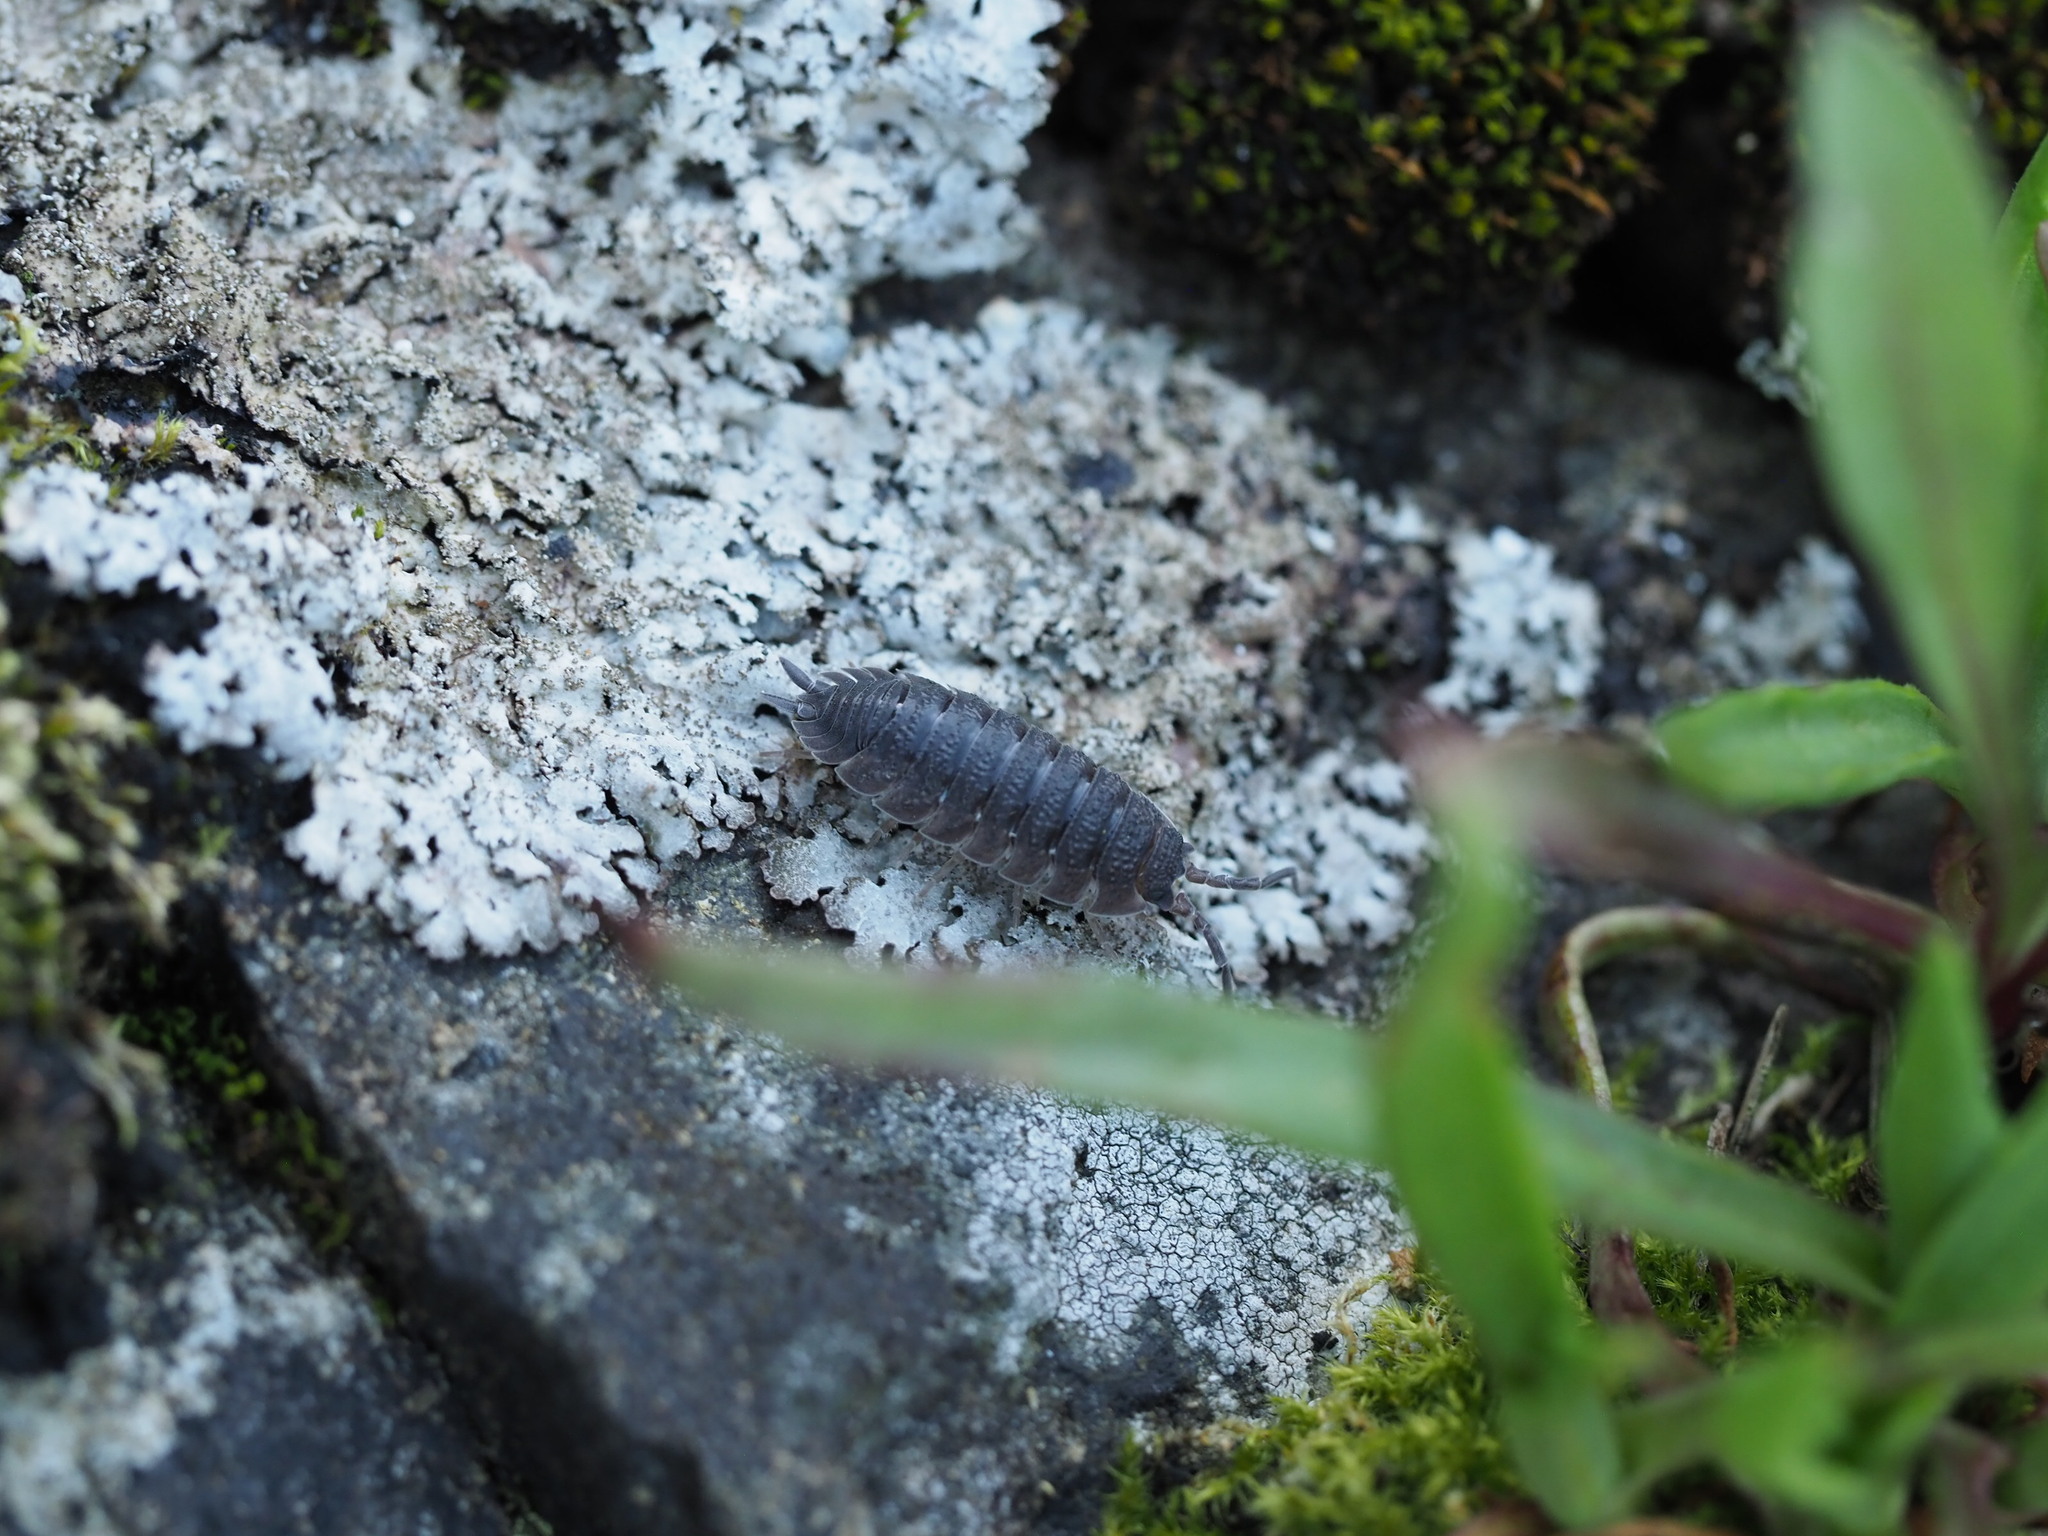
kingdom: Animalia
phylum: Arthropoda
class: Malacostraca
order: Isopoda
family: Porcellionidae
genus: Porcellio
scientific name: Porcellio scaber
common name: Common rough woodlouse
